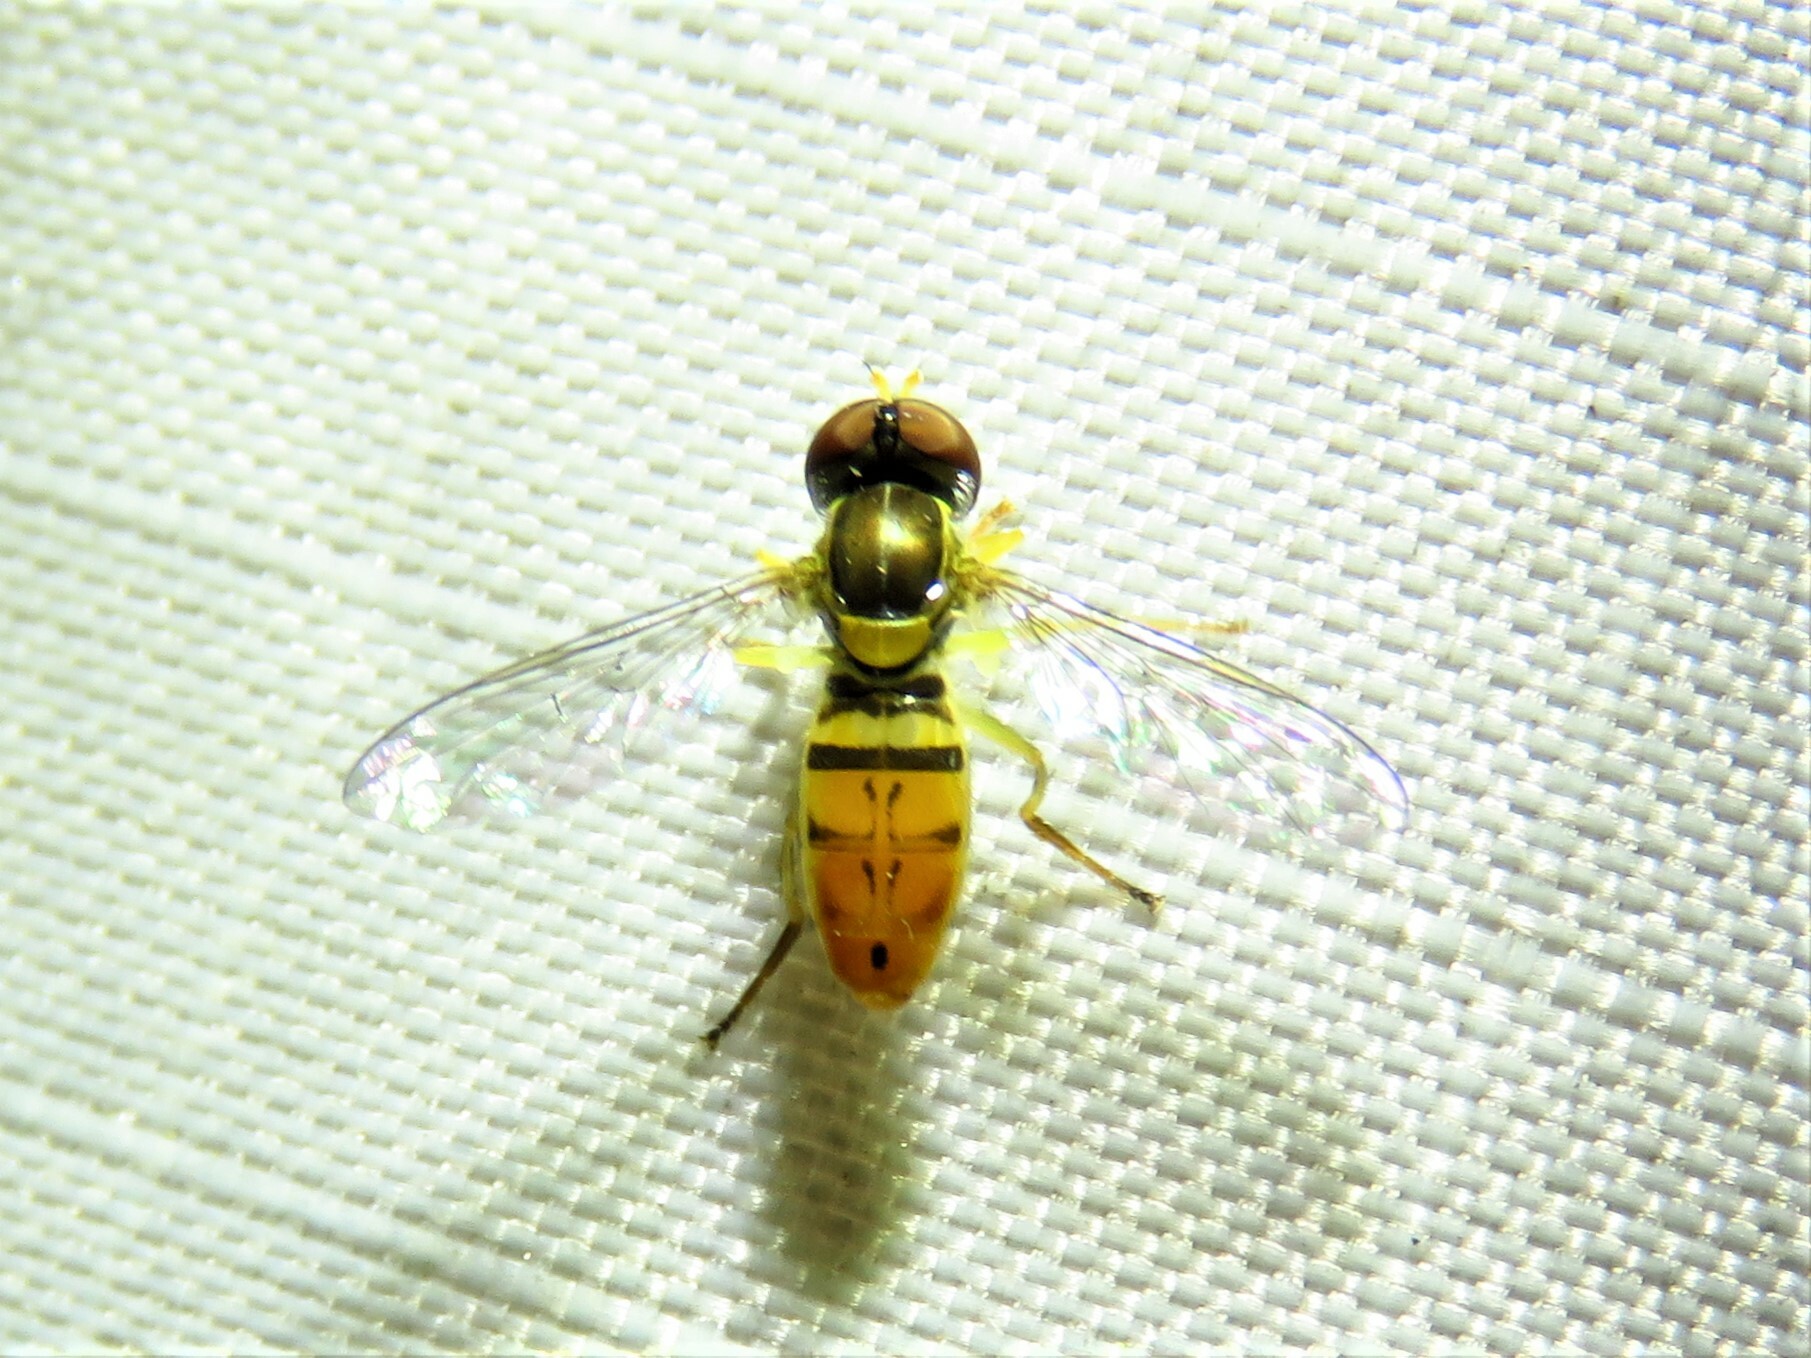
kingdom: Animalia
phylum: Arthropoda
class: Insecta
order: Diptera
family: Syrphidae
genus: Toxomerus
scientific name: Toxomerus marginatus
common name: Syrphid fly
